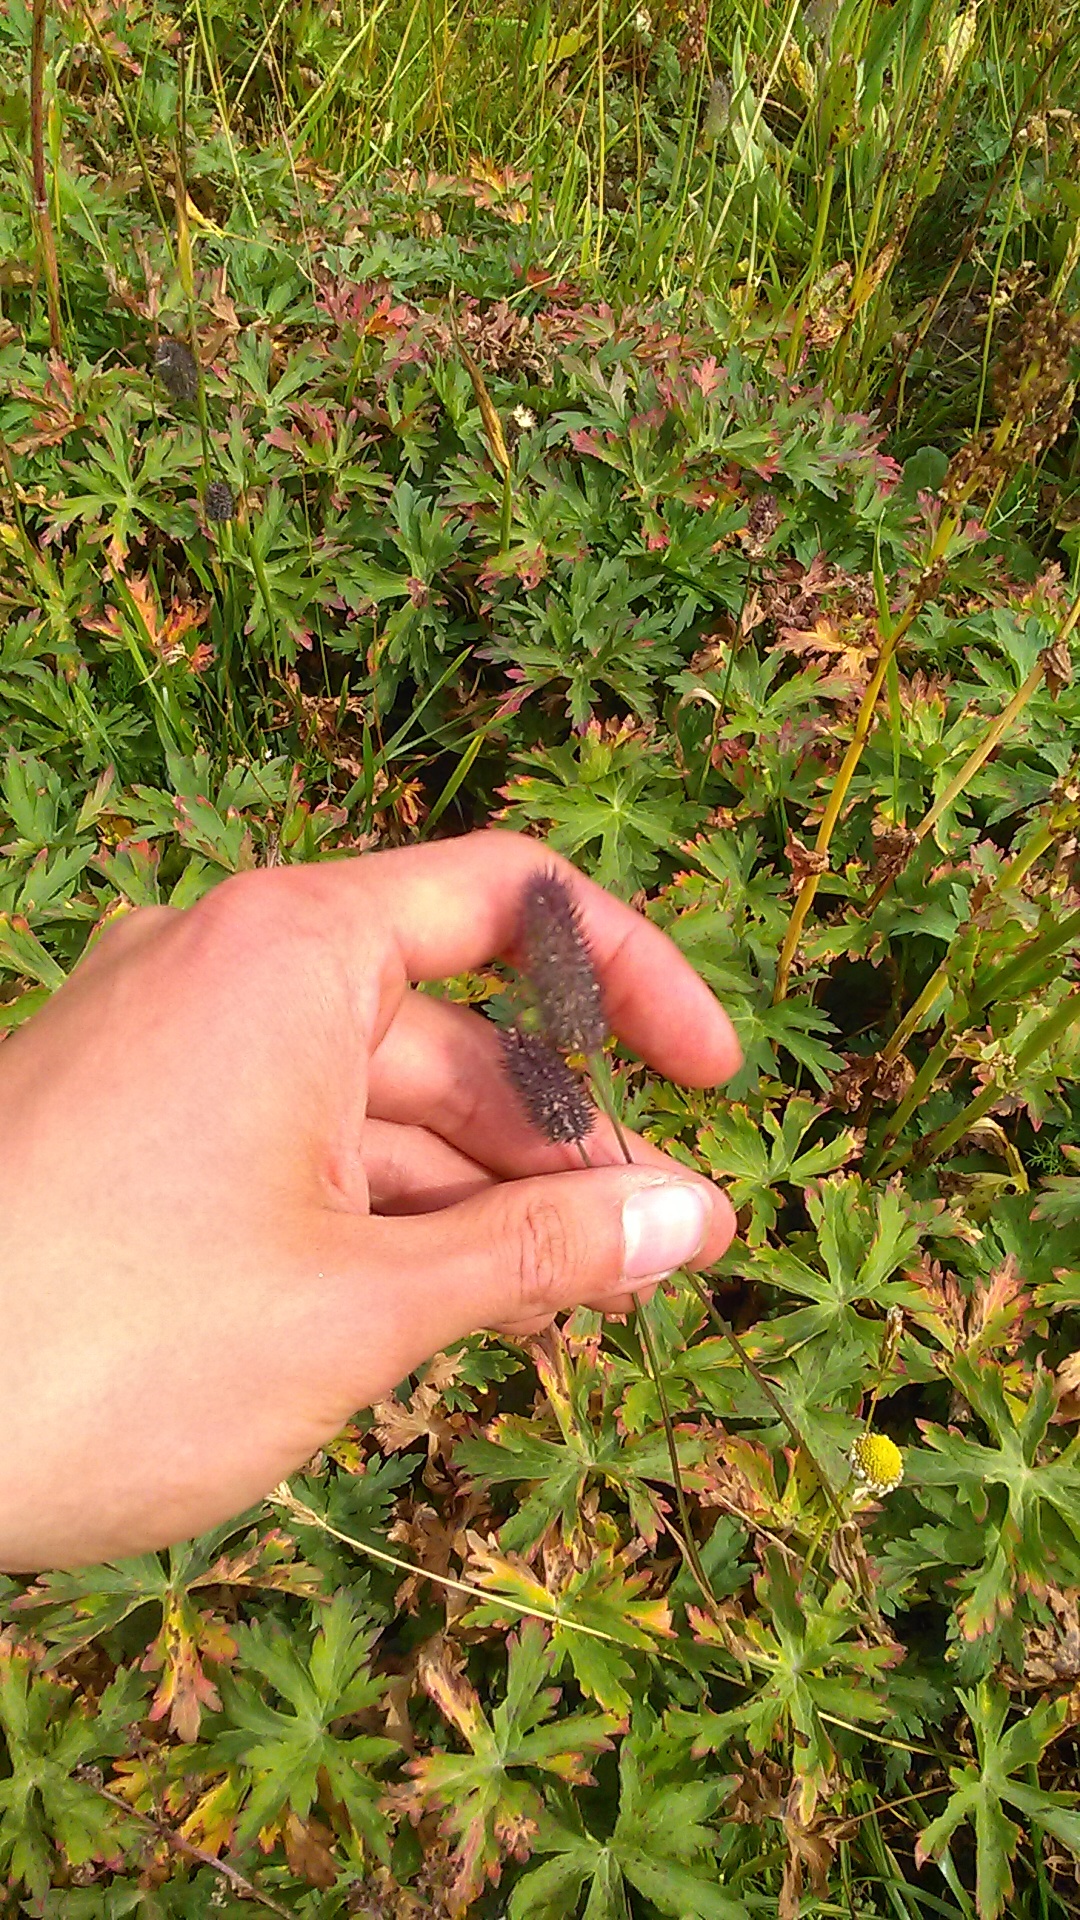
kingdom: Plantae
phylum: Tracheophyta
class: Liliopsida
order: Poales
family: Poaceae
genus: Phleum
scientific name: Phleum alpinum
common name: Alpine cat's-tail
